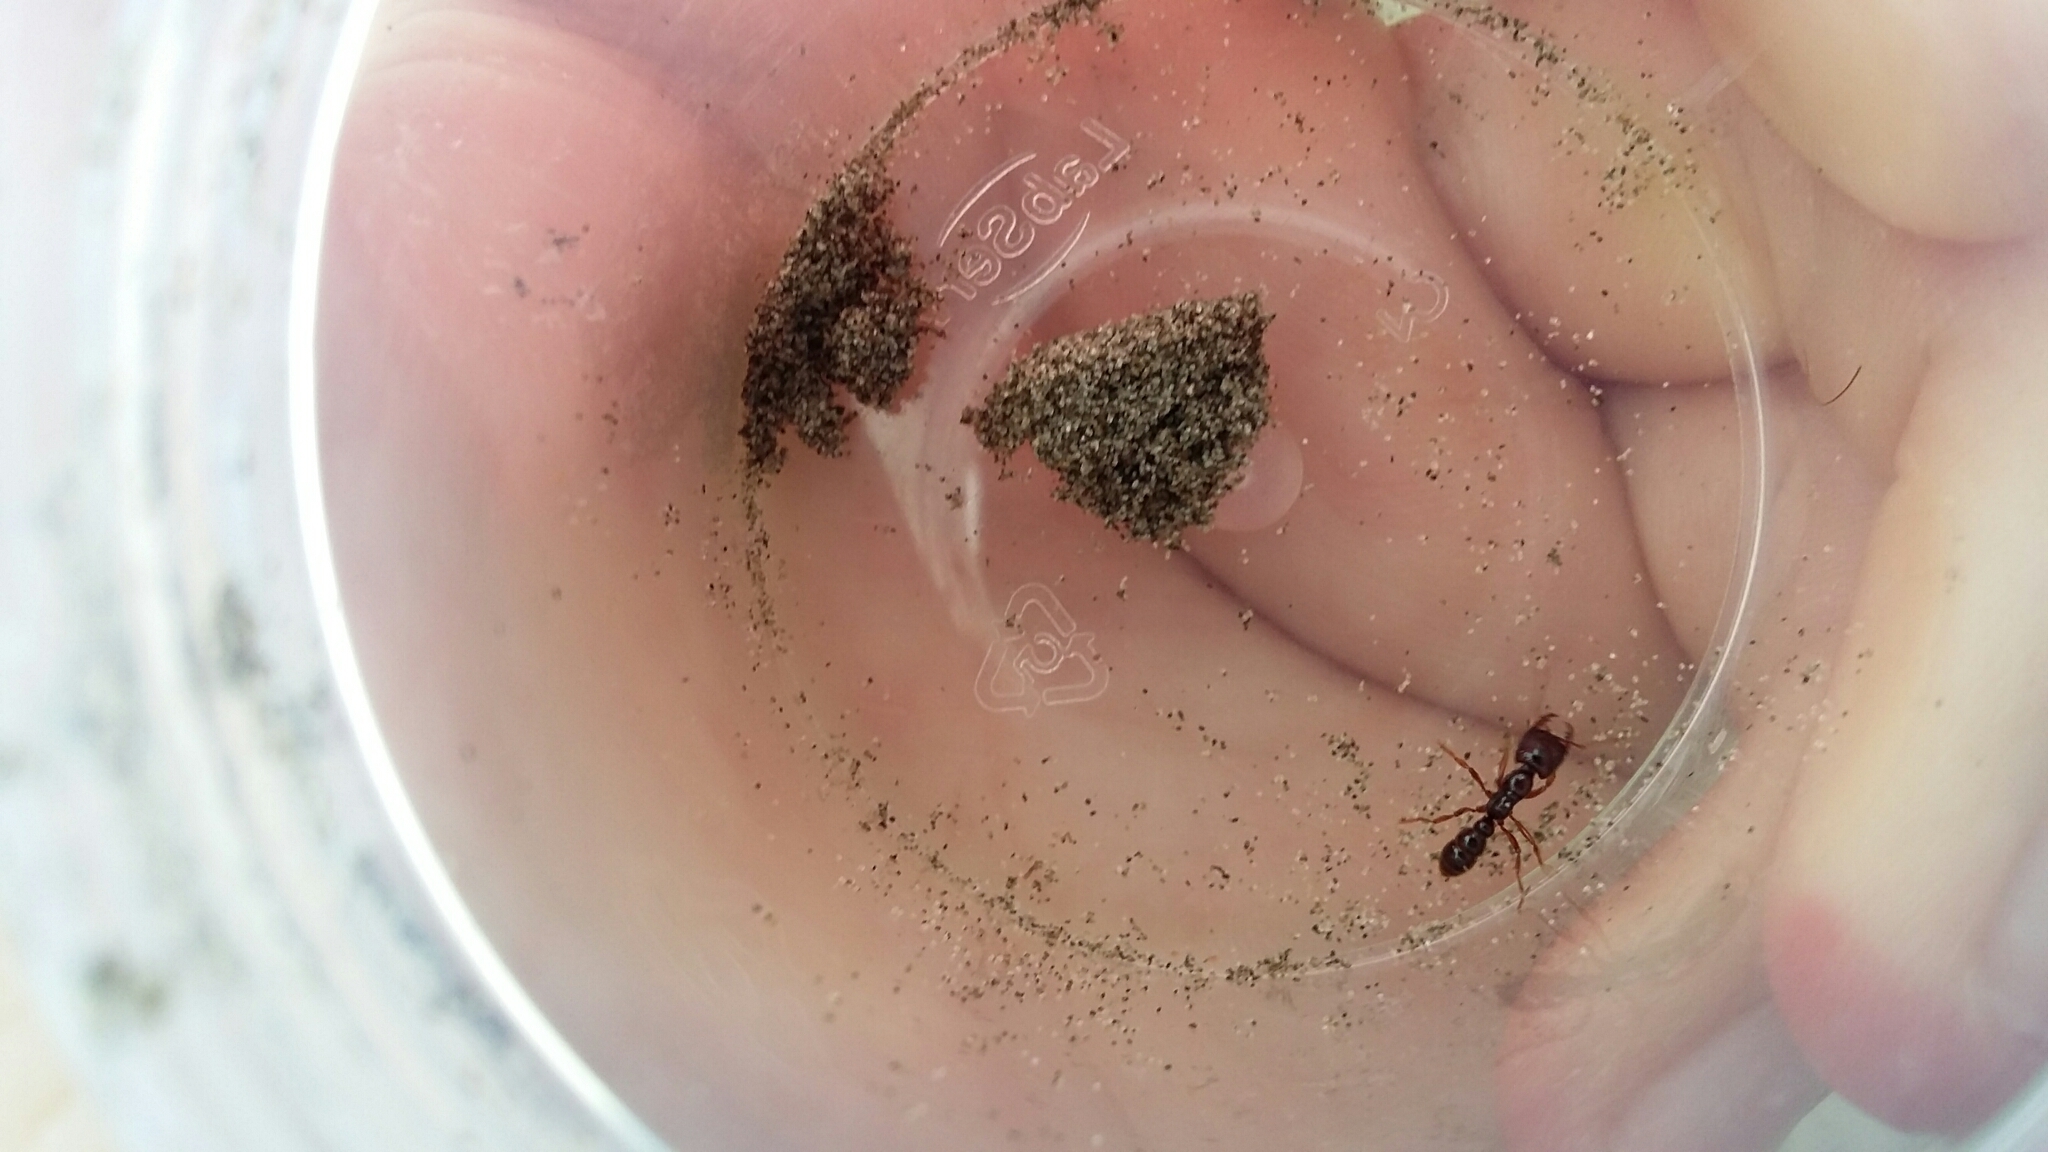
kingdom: Animalia
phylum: Arthropoda
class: Insecta
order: Hymenoptera
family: Formicidae
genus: Amblyopone
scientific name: Amblyopone australis
